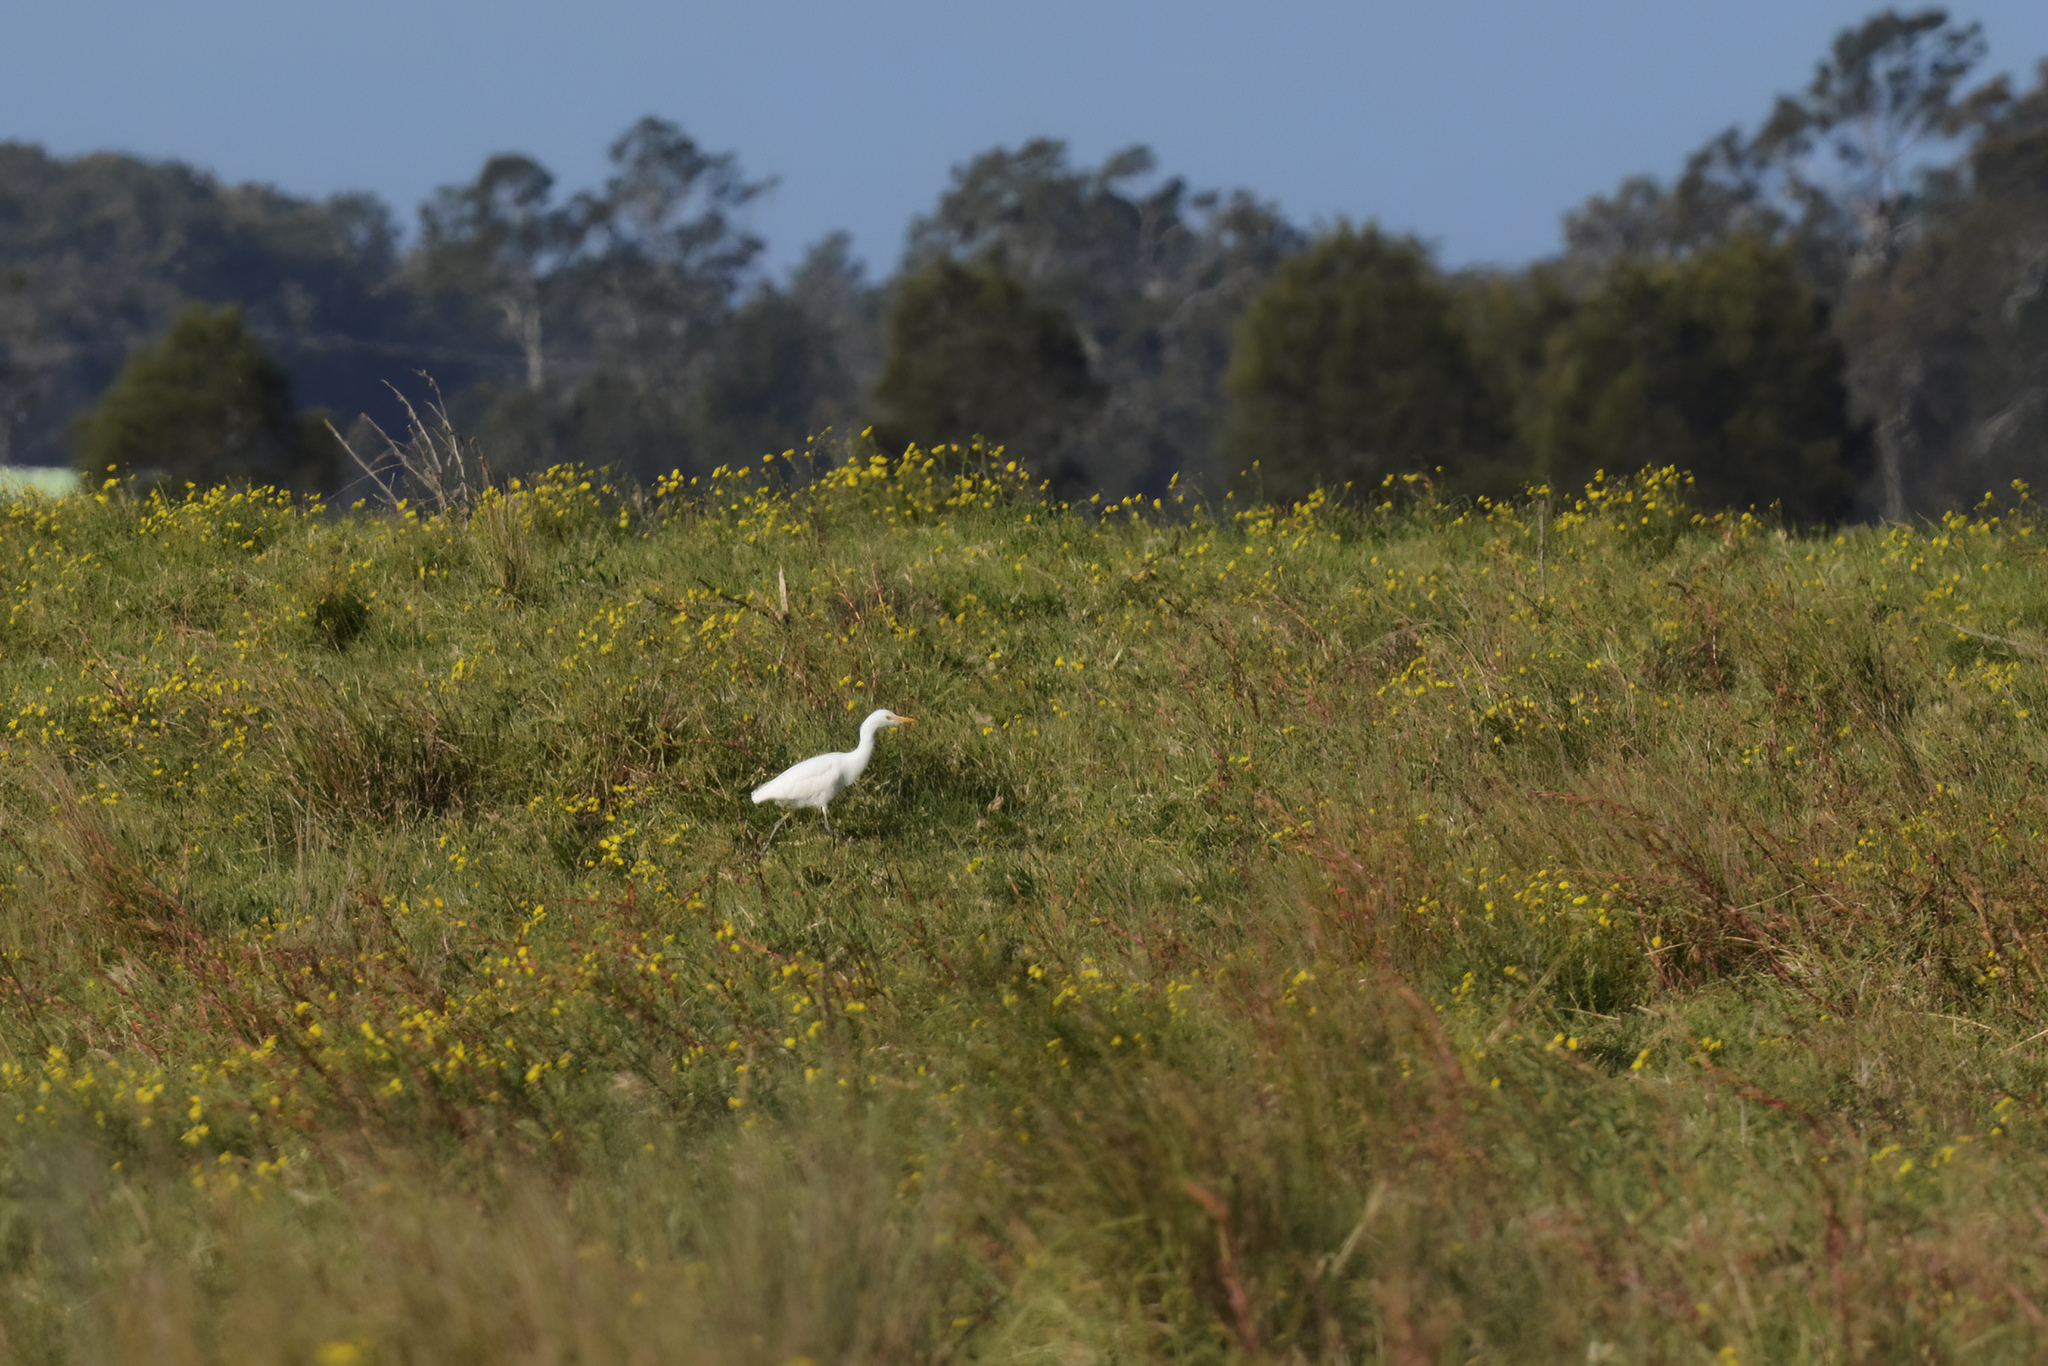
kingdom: Animalia
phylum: Chordata
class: Aves
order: Pelecaniformes
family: Ardeidae
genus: Bubulcus
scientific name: Bubulcus coromandus
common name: Eastern cattle egret
